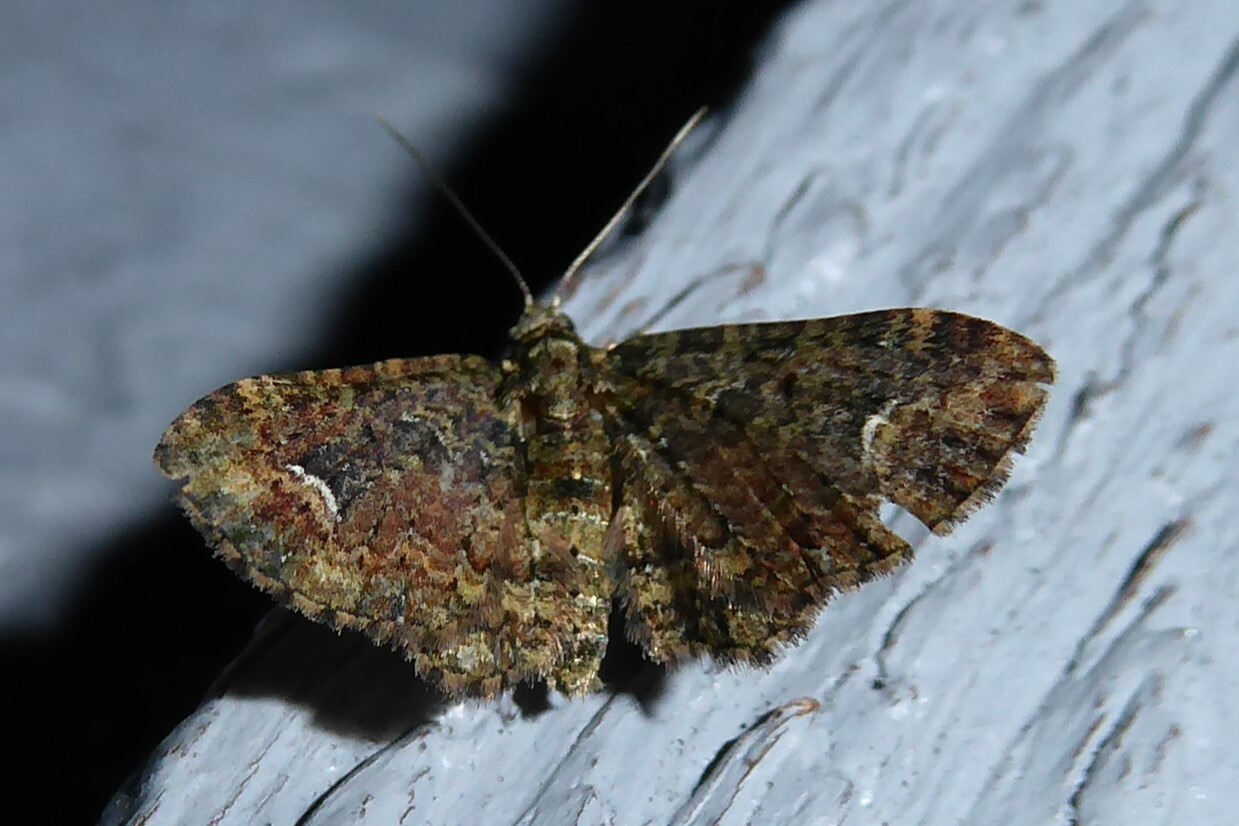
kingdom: Animalia
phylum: Arthropoda
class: Insecta
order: Lepidoptera
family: Geometridae
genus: Pasiphilodes
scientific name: Pasiphilodes testulata
